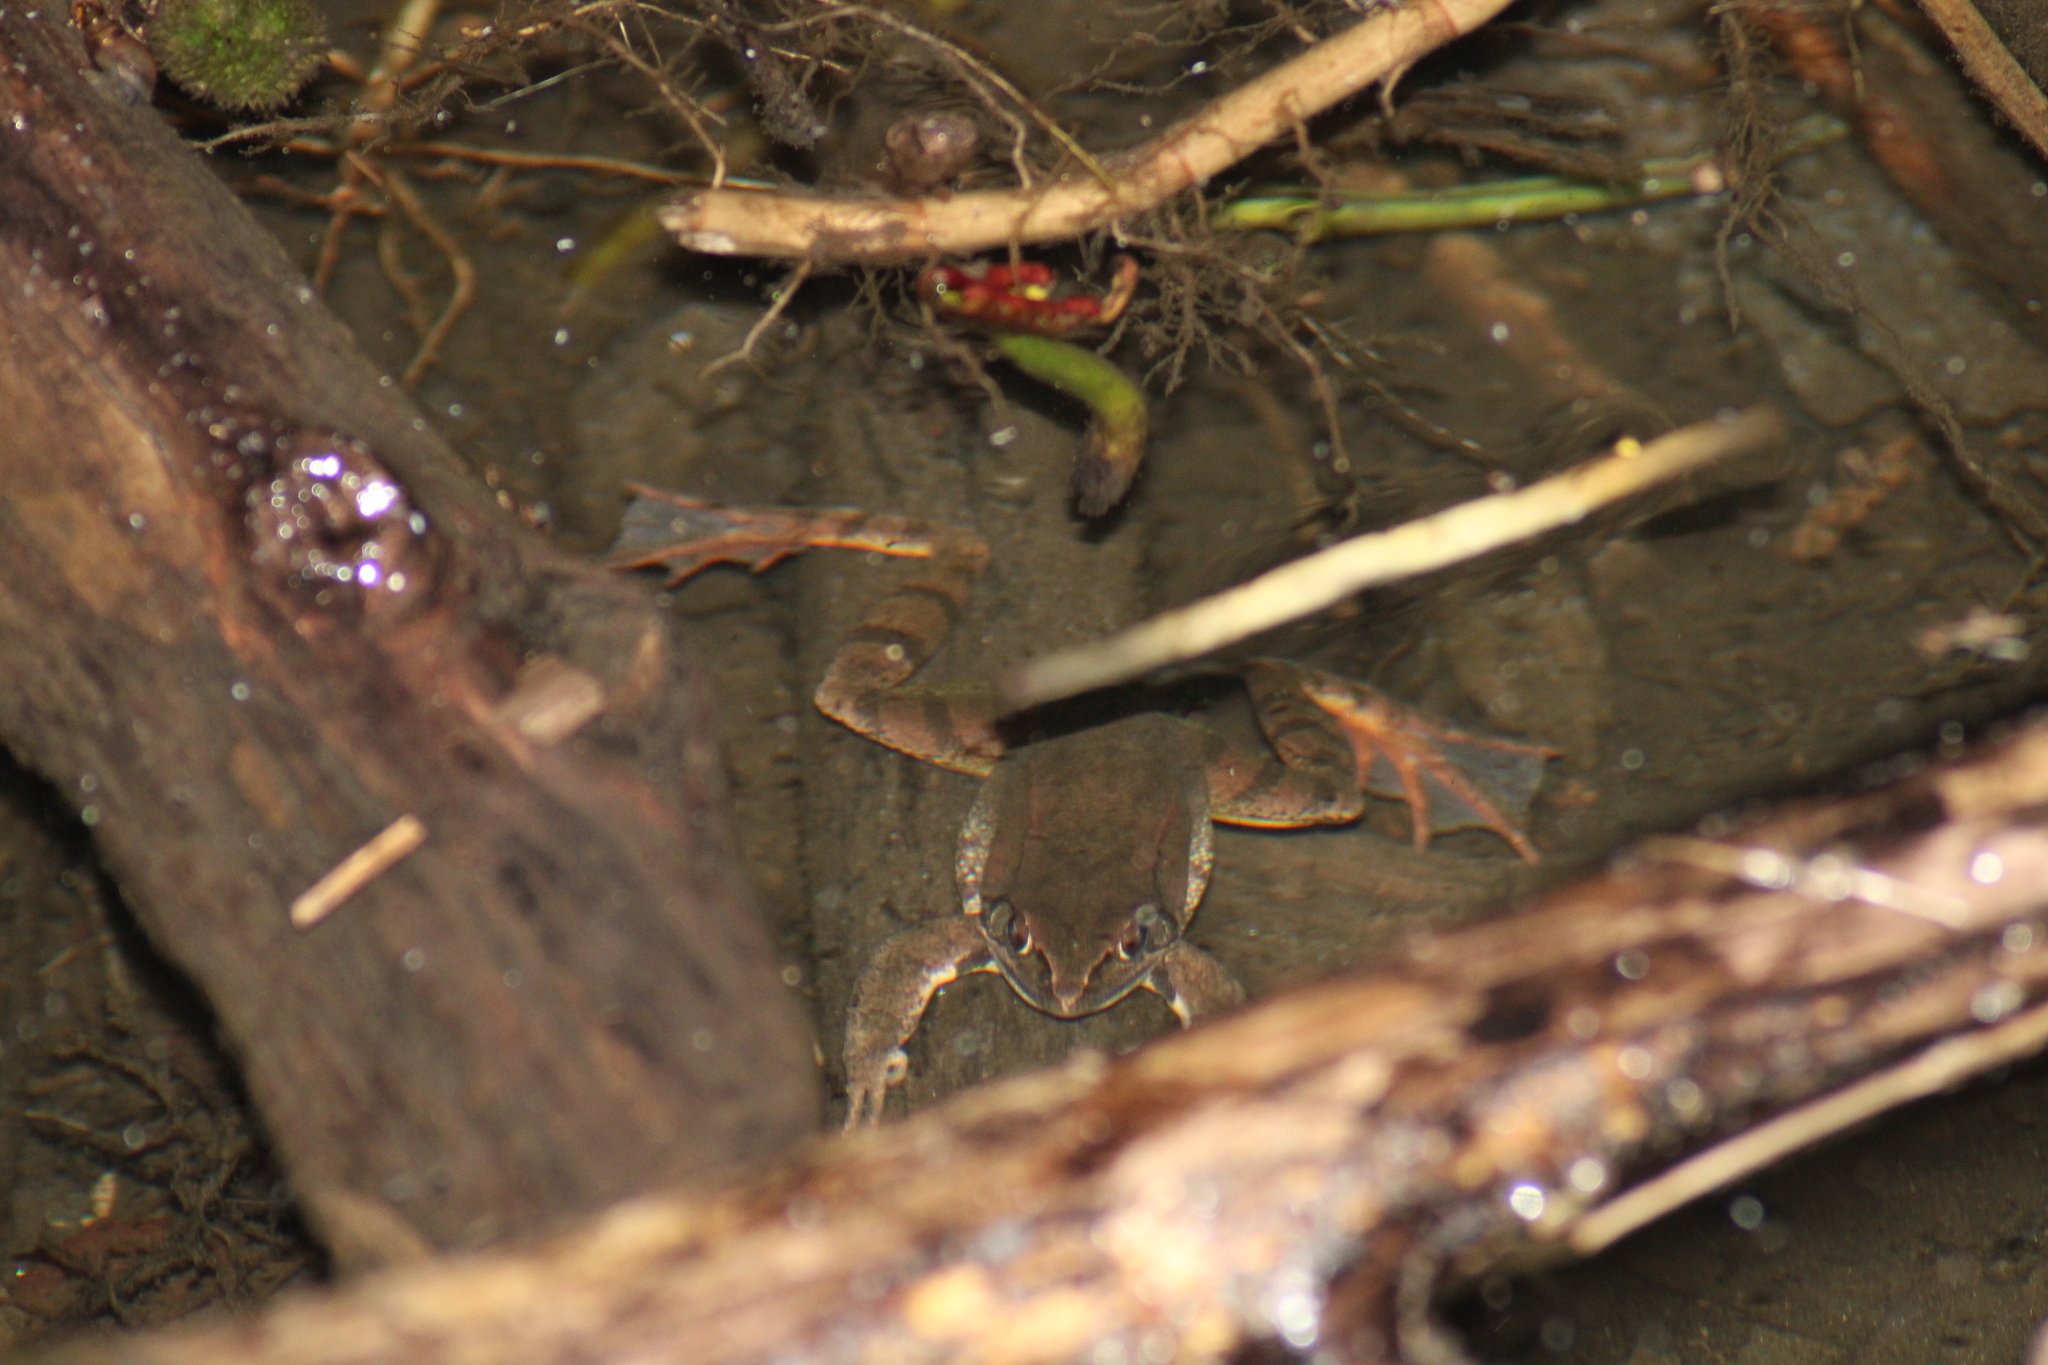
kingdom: Animalia
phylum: Chordata
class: Amphibia
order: Anura
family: Ranidae
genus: Rana
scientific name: Rana dalmatina
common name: Agile frog
